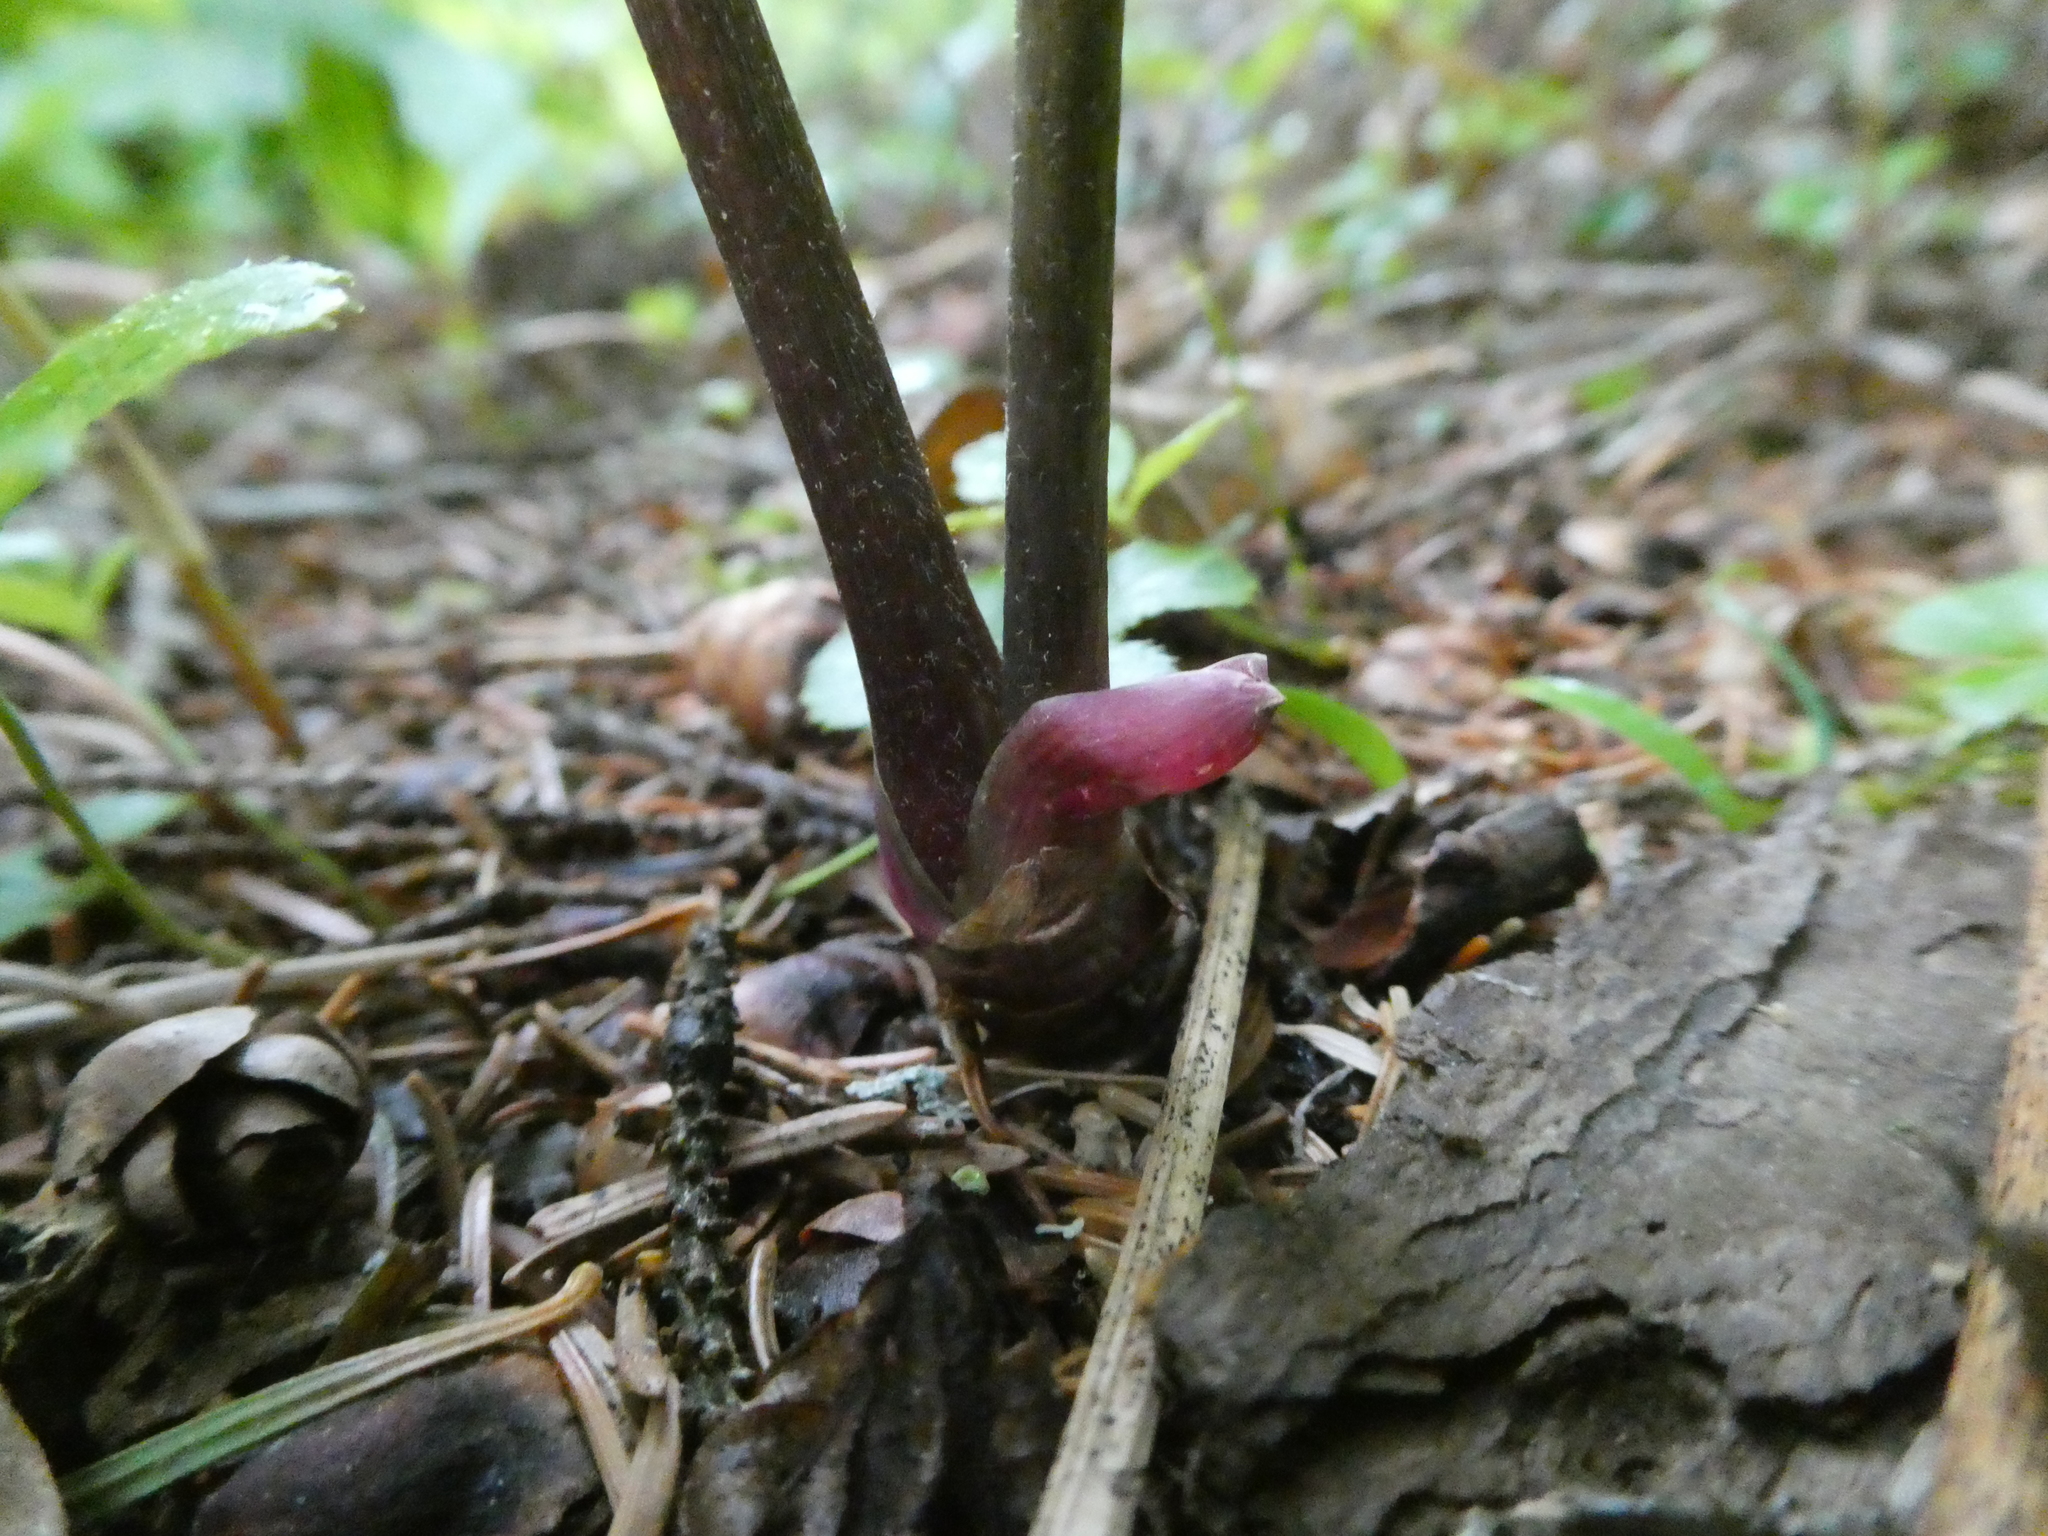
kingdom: Plantae
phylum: Tracheophyta
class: Magnoliopsida
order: Apiales
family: Araliaceae
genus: Aralia
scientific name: Aralia nudicaulis
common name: Wild sarsaparilla
